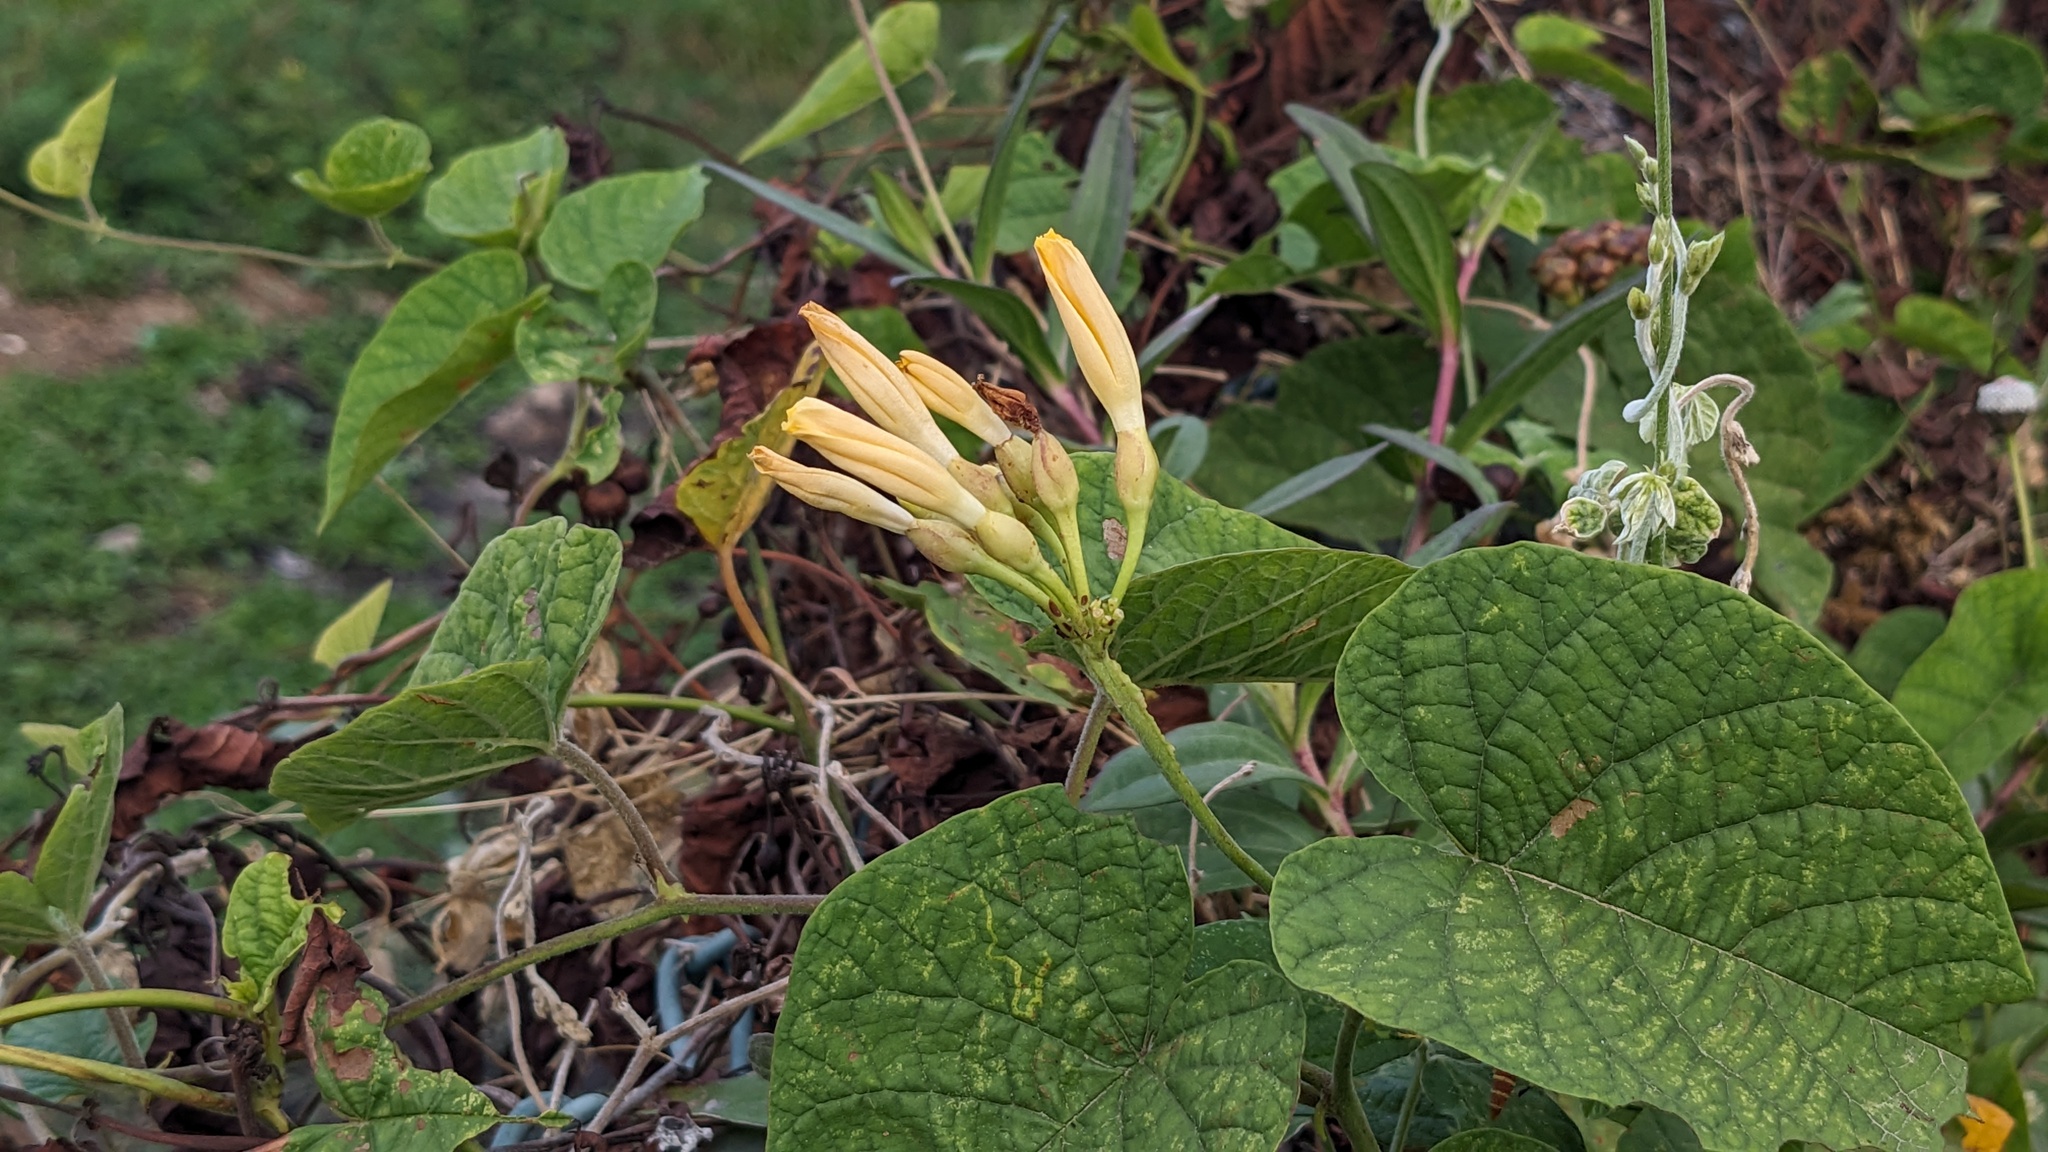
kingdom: Plantae
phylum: Tracheophyta
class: Magnoliopsida
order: Solanales
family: Convolvulaceae
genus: Camonea
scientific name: Camonea umbellata
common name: Hogvine
